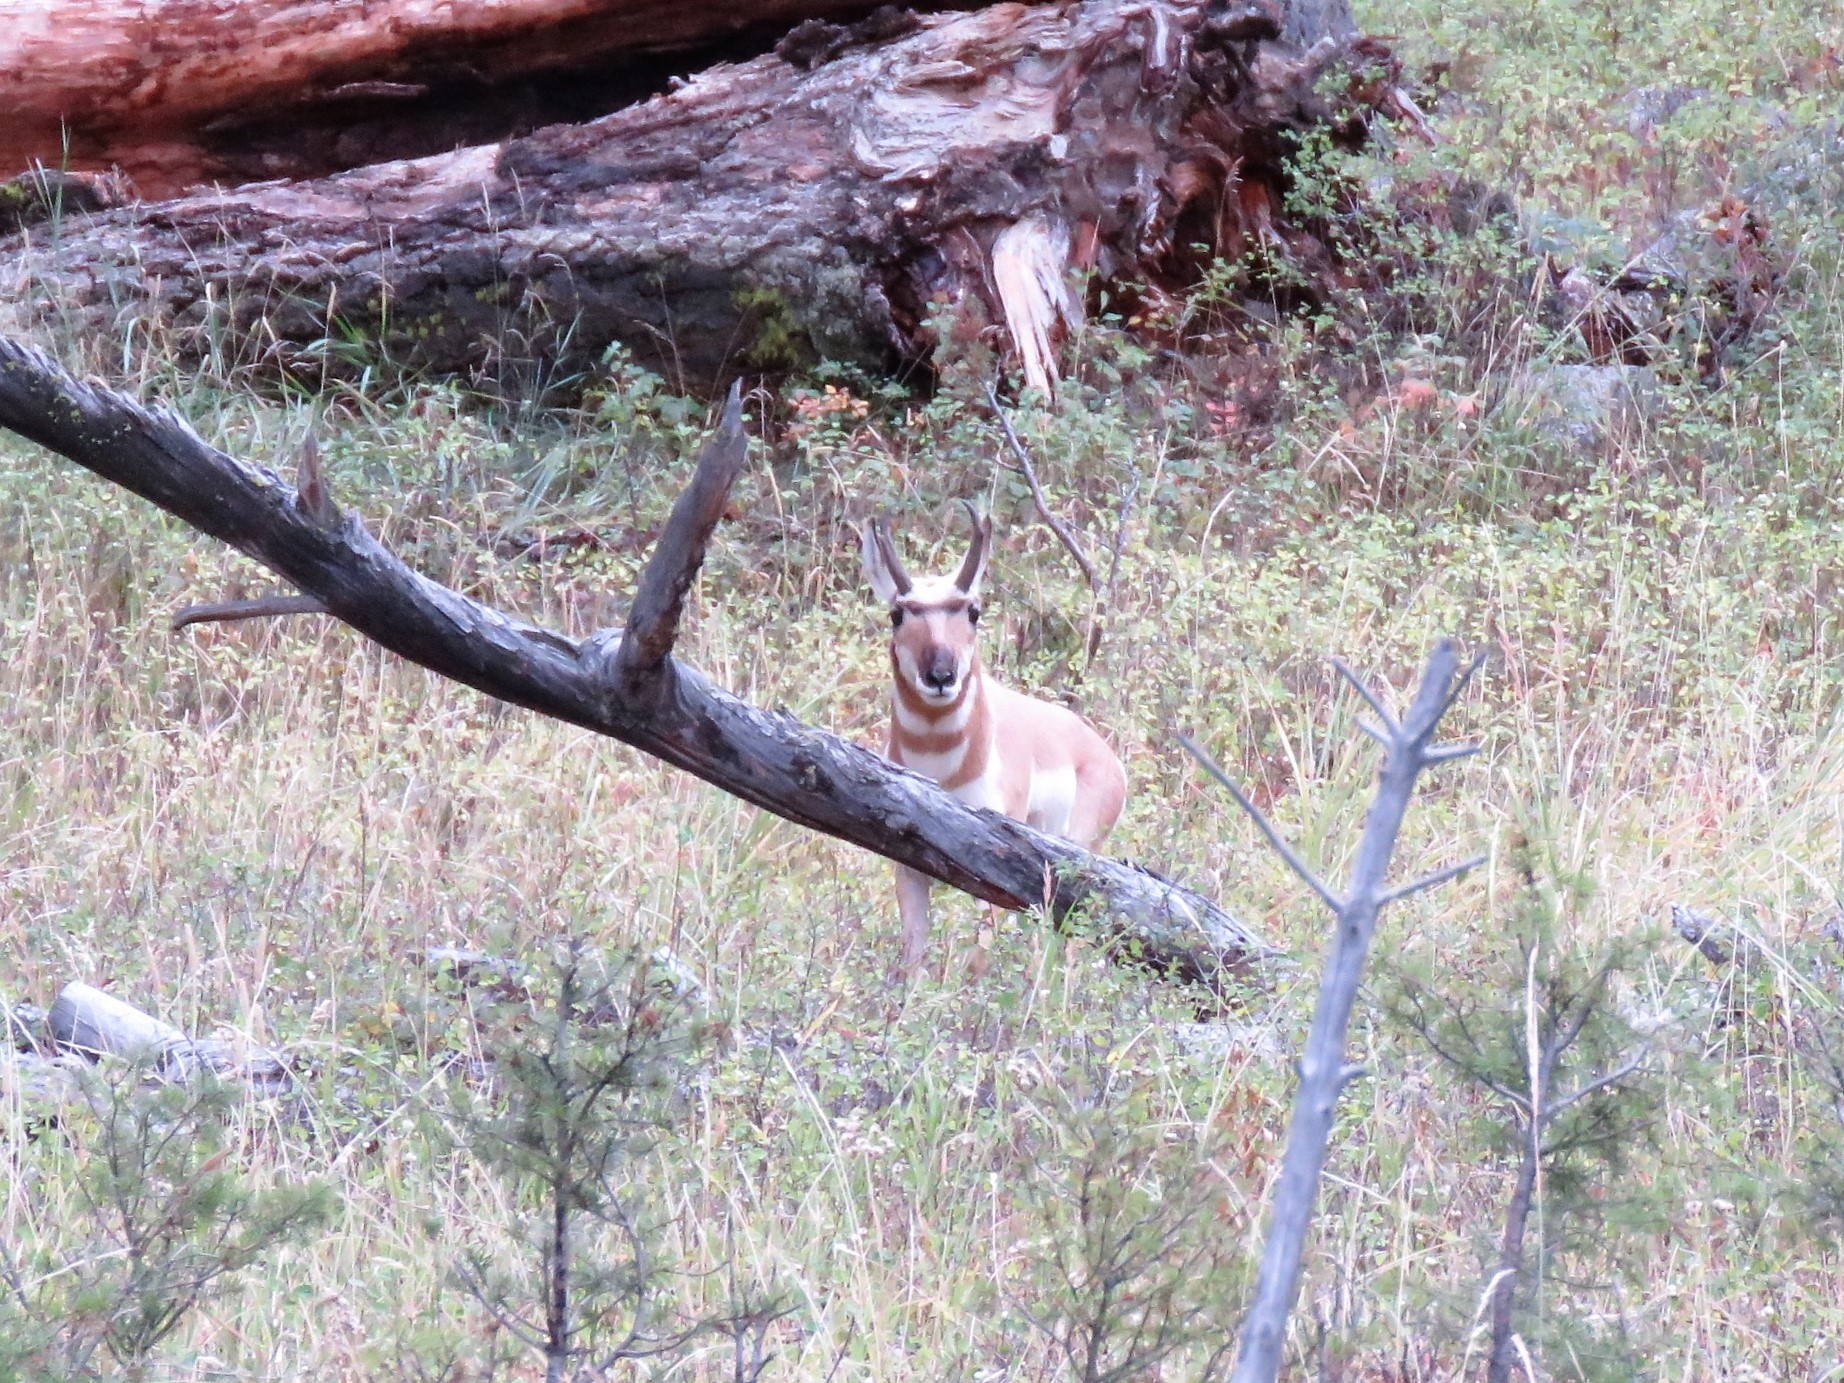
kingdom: Animalia
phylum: Chordata
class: Mammalia
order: Artiodactyla
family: Antilocapridae
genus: Antilocapra
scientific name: Antilocapra americana
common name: Pronghorn
